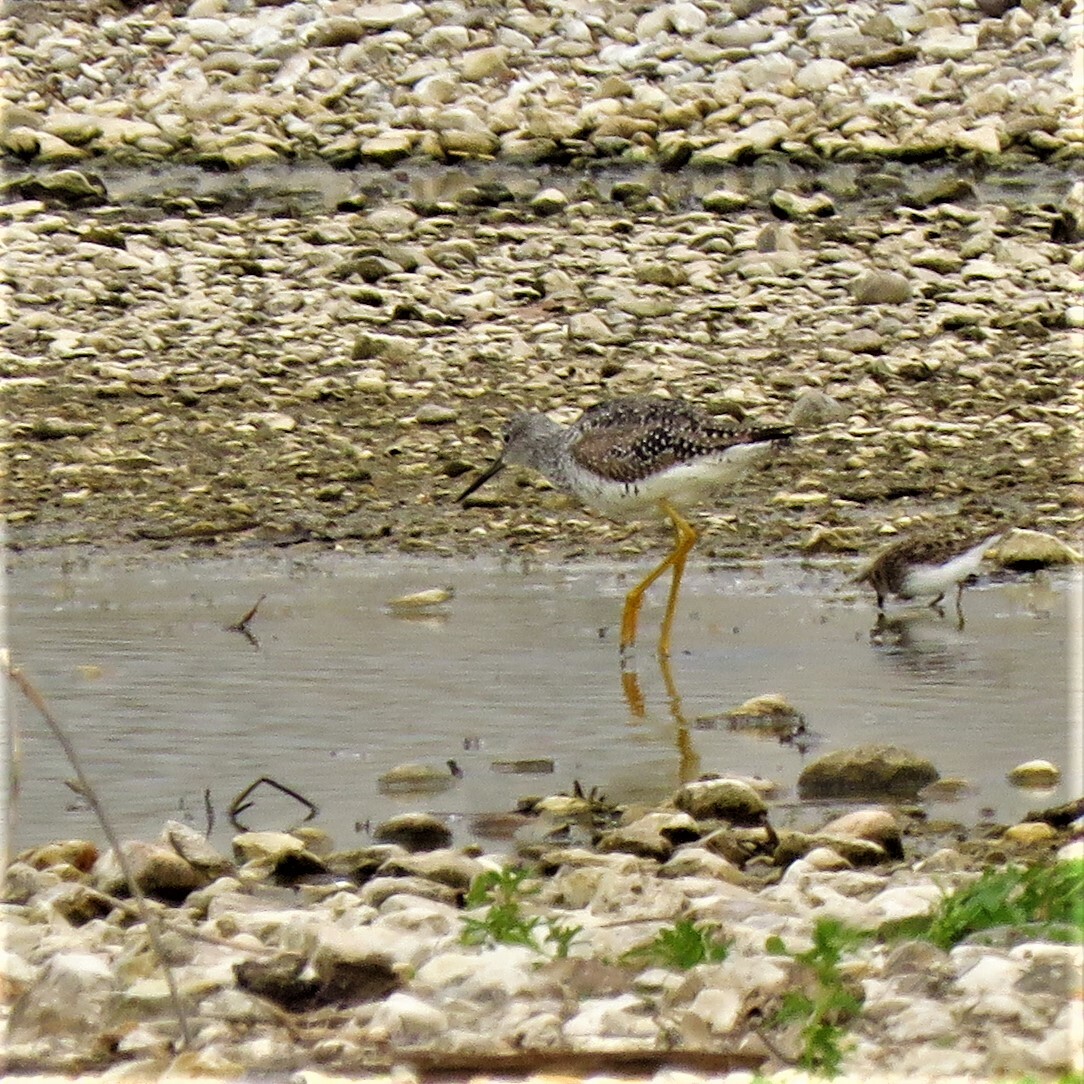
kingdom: Animalia
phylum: Chordata
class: Aves
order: Charadriiformes
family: Scolopacidae
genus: Tringa
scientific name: Tringa melanoleuca
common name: Greater yellowlegs
